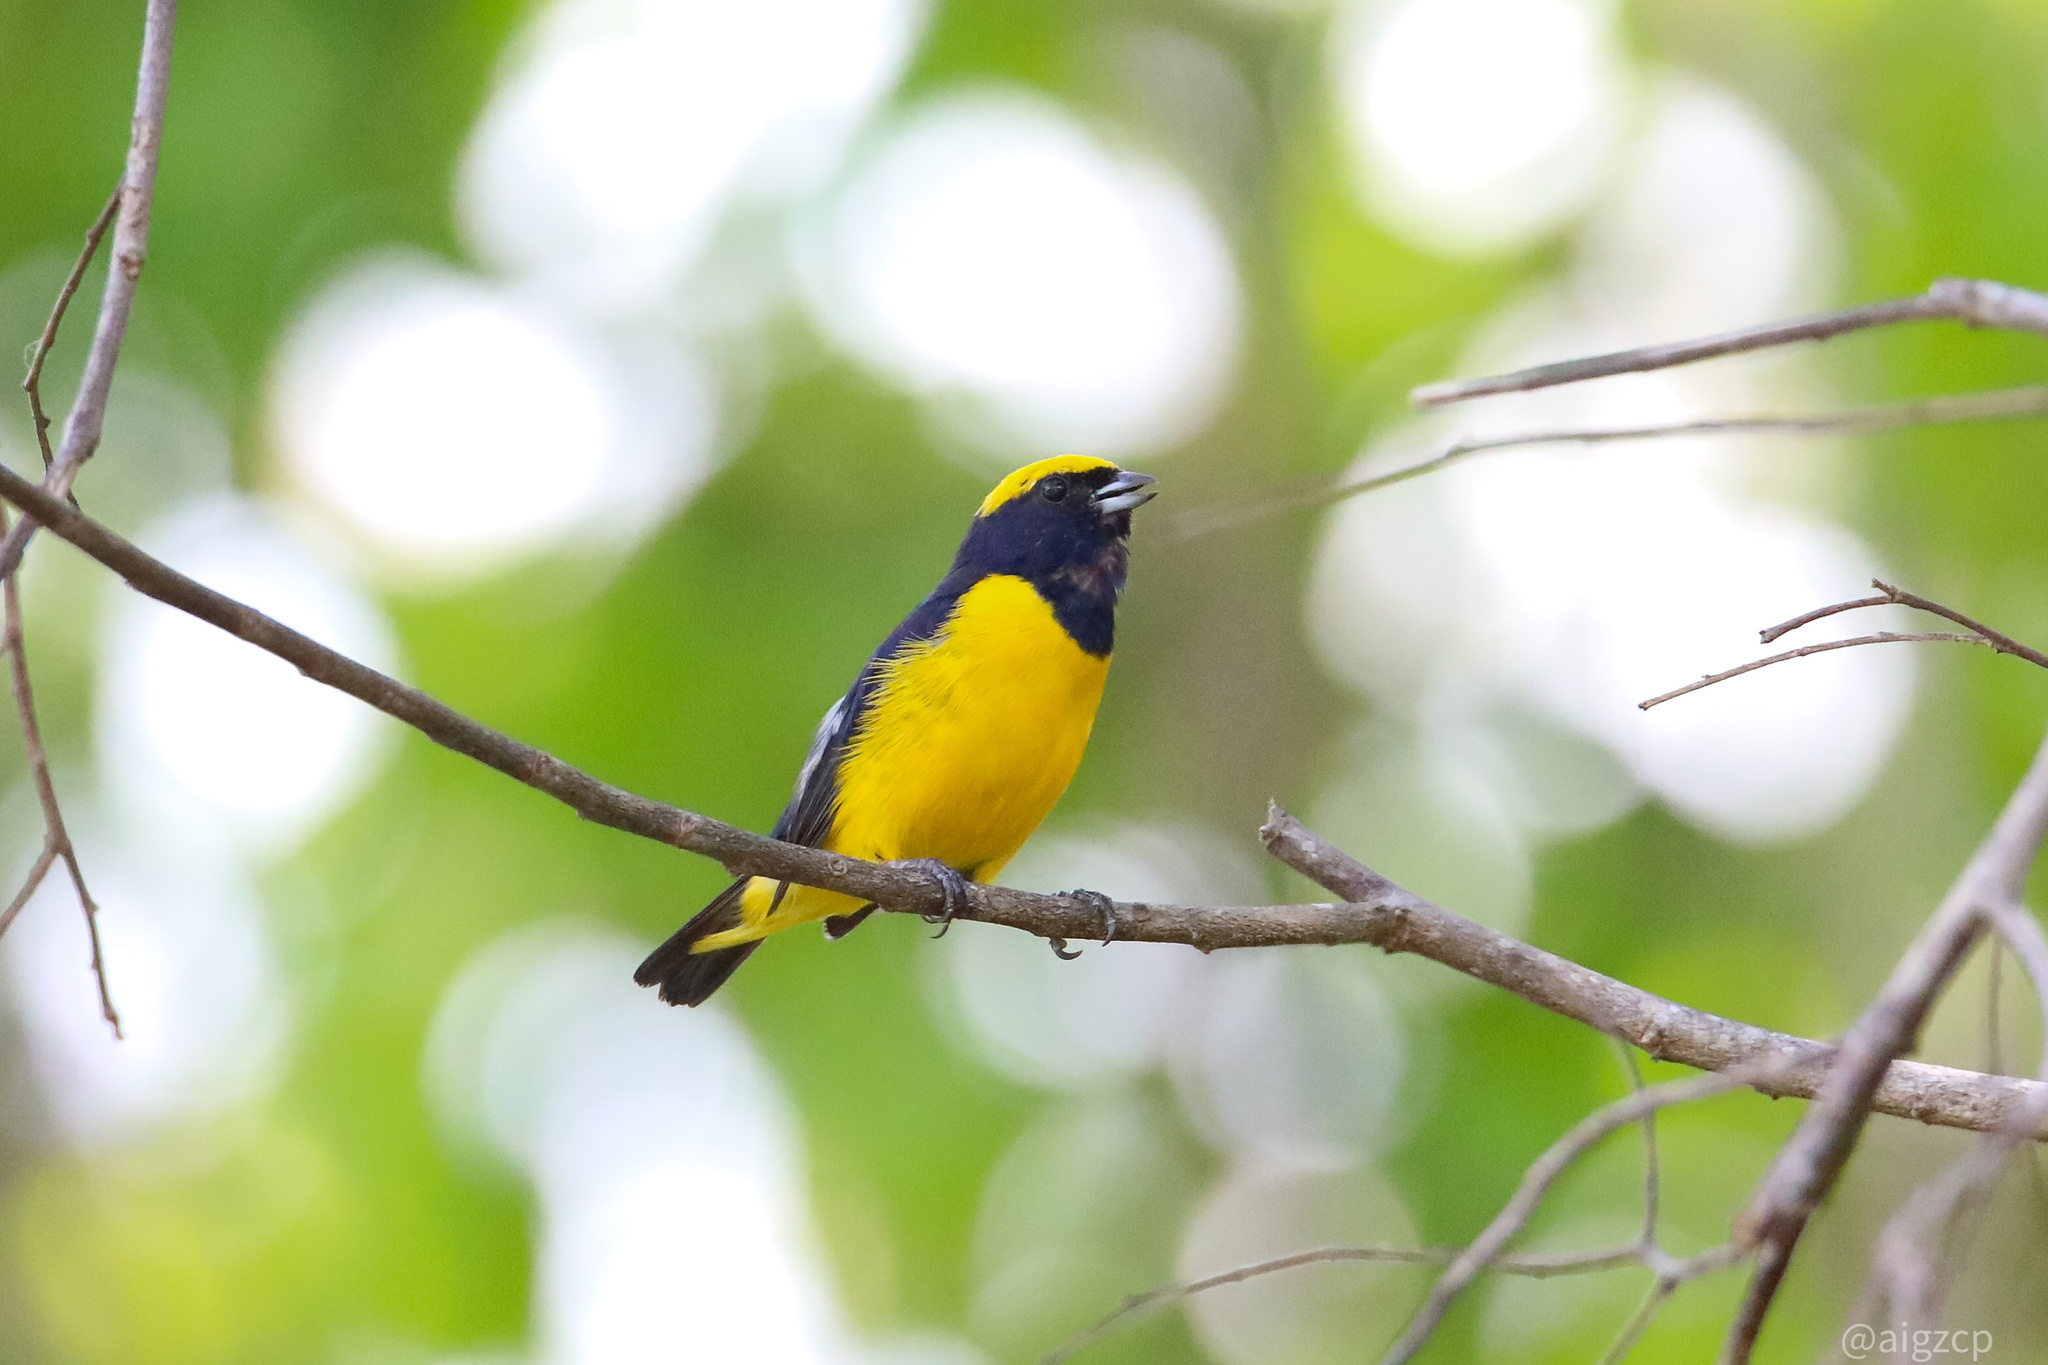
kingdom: Animalia
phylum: Chordata
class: Aves
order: Passeriformes
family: Fringillidae
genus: Euphonia
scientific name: Euphonia luteicapilla
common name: Yellow-crowned euphonia
